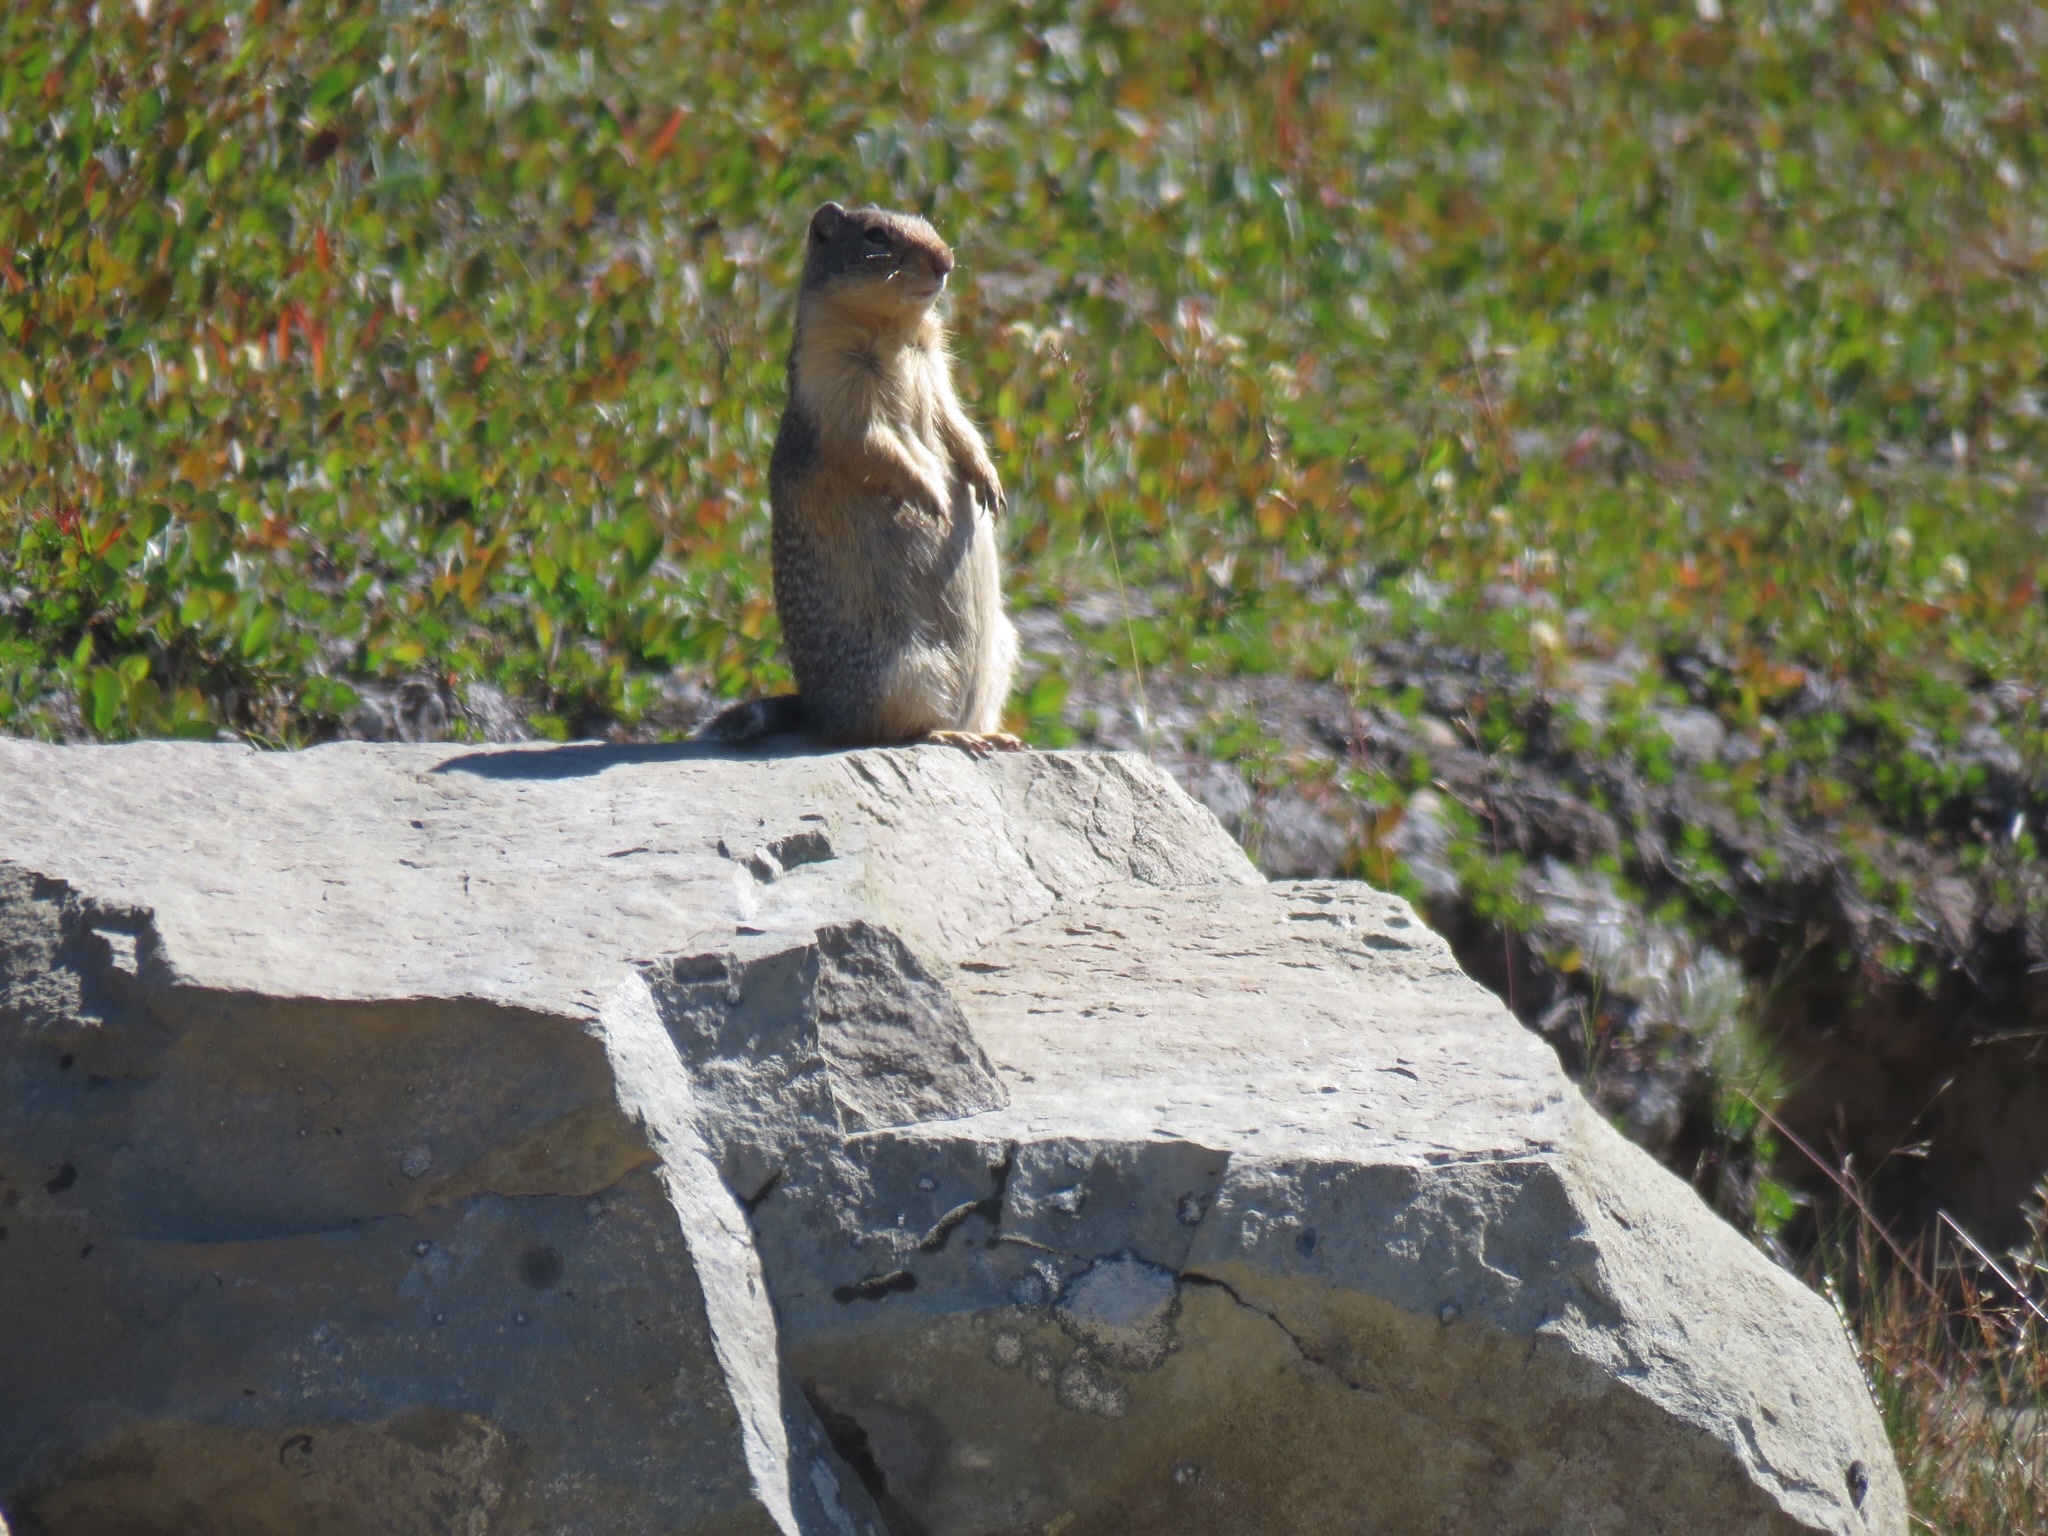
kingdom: Animalia
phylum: Chordata
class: Mammalia
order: Rodentia
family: Sciuridae
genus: Urocitellus
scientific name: Urocitellus columbianus
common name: Columbian ground squirrel
